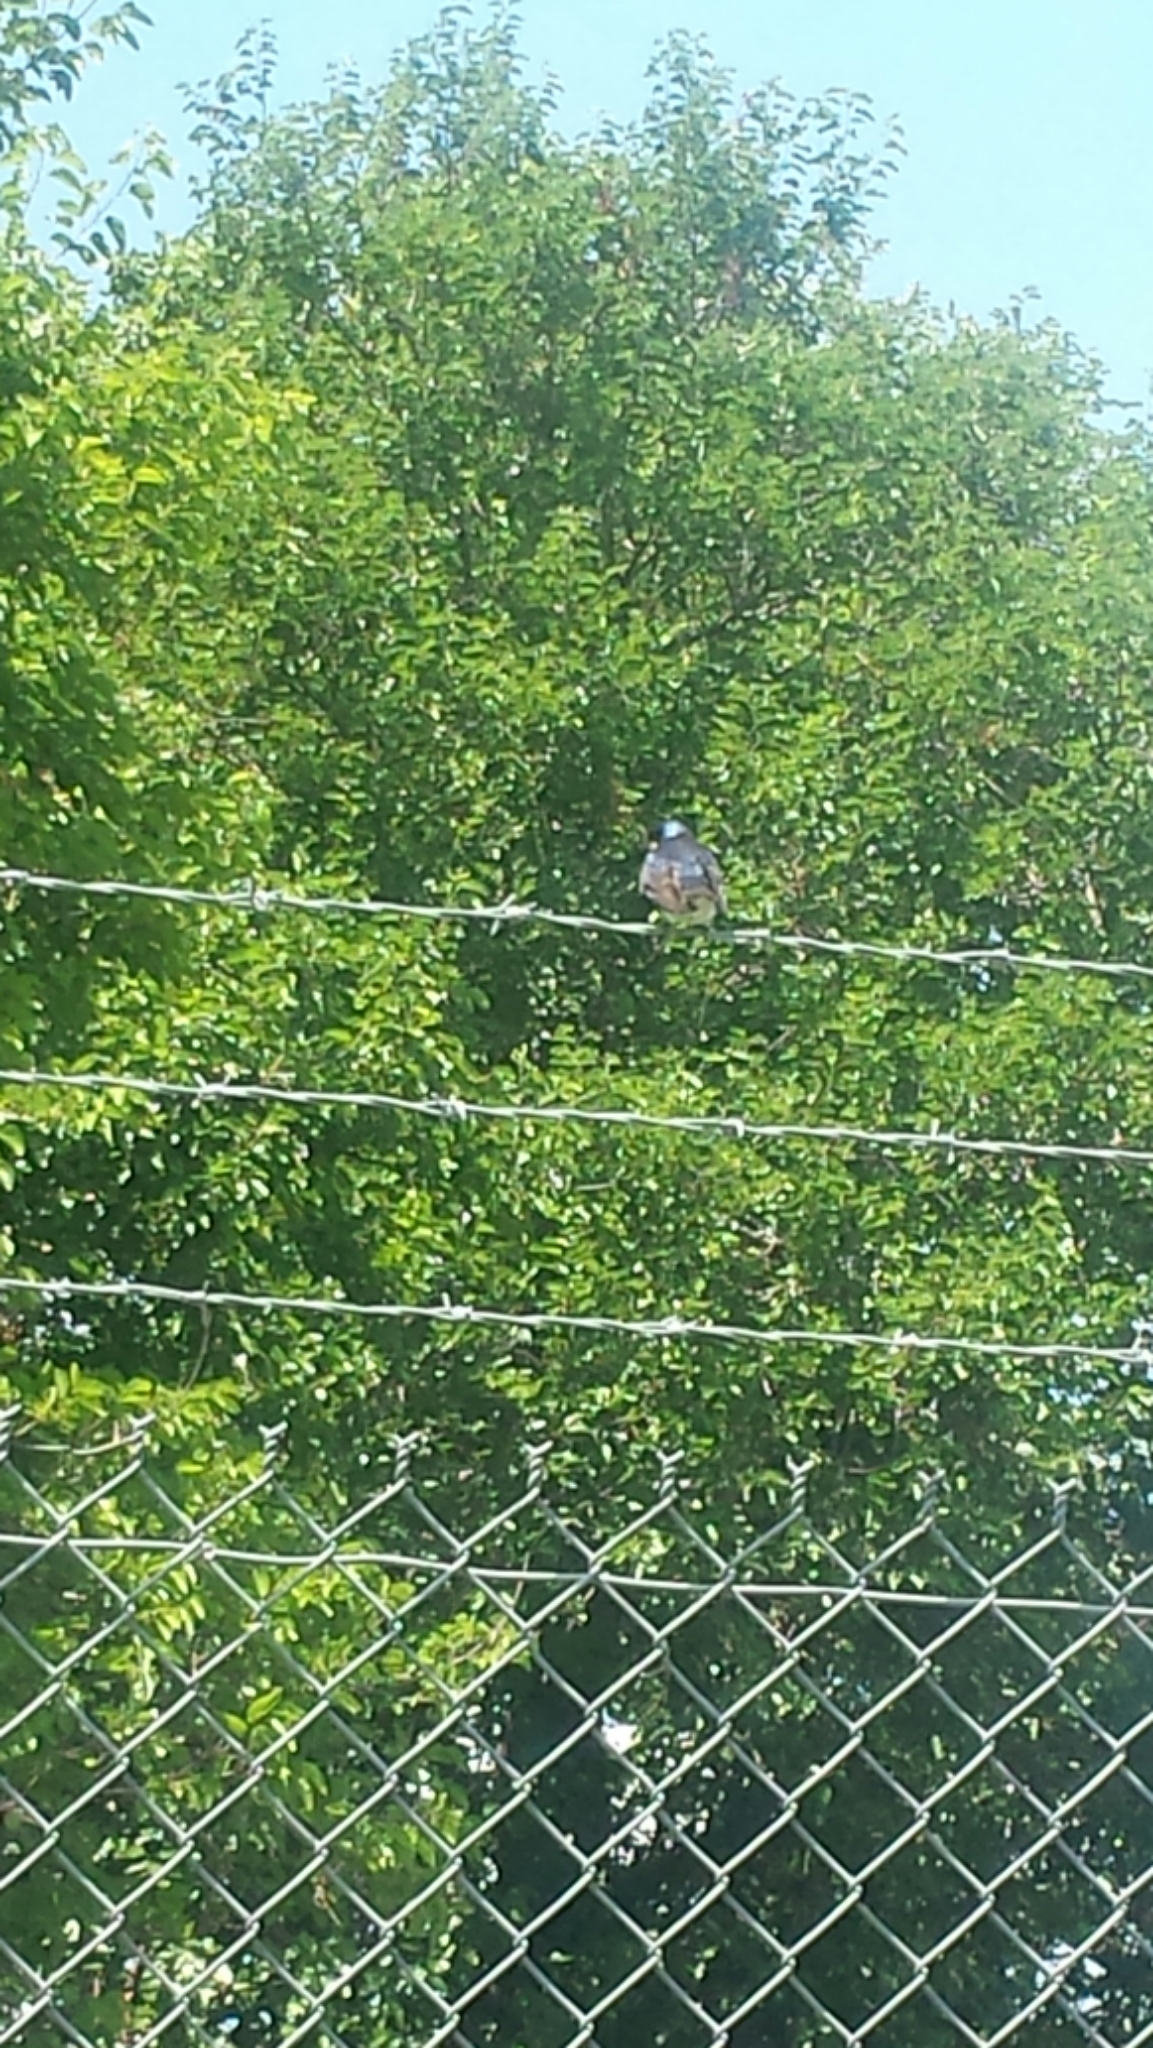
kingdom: Animalia
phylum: Chordata
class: Aves
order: Passeriformes
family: Hirundinidae
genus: Tachycineta
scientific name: Tachycineta bicolor
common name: Tree swallow
